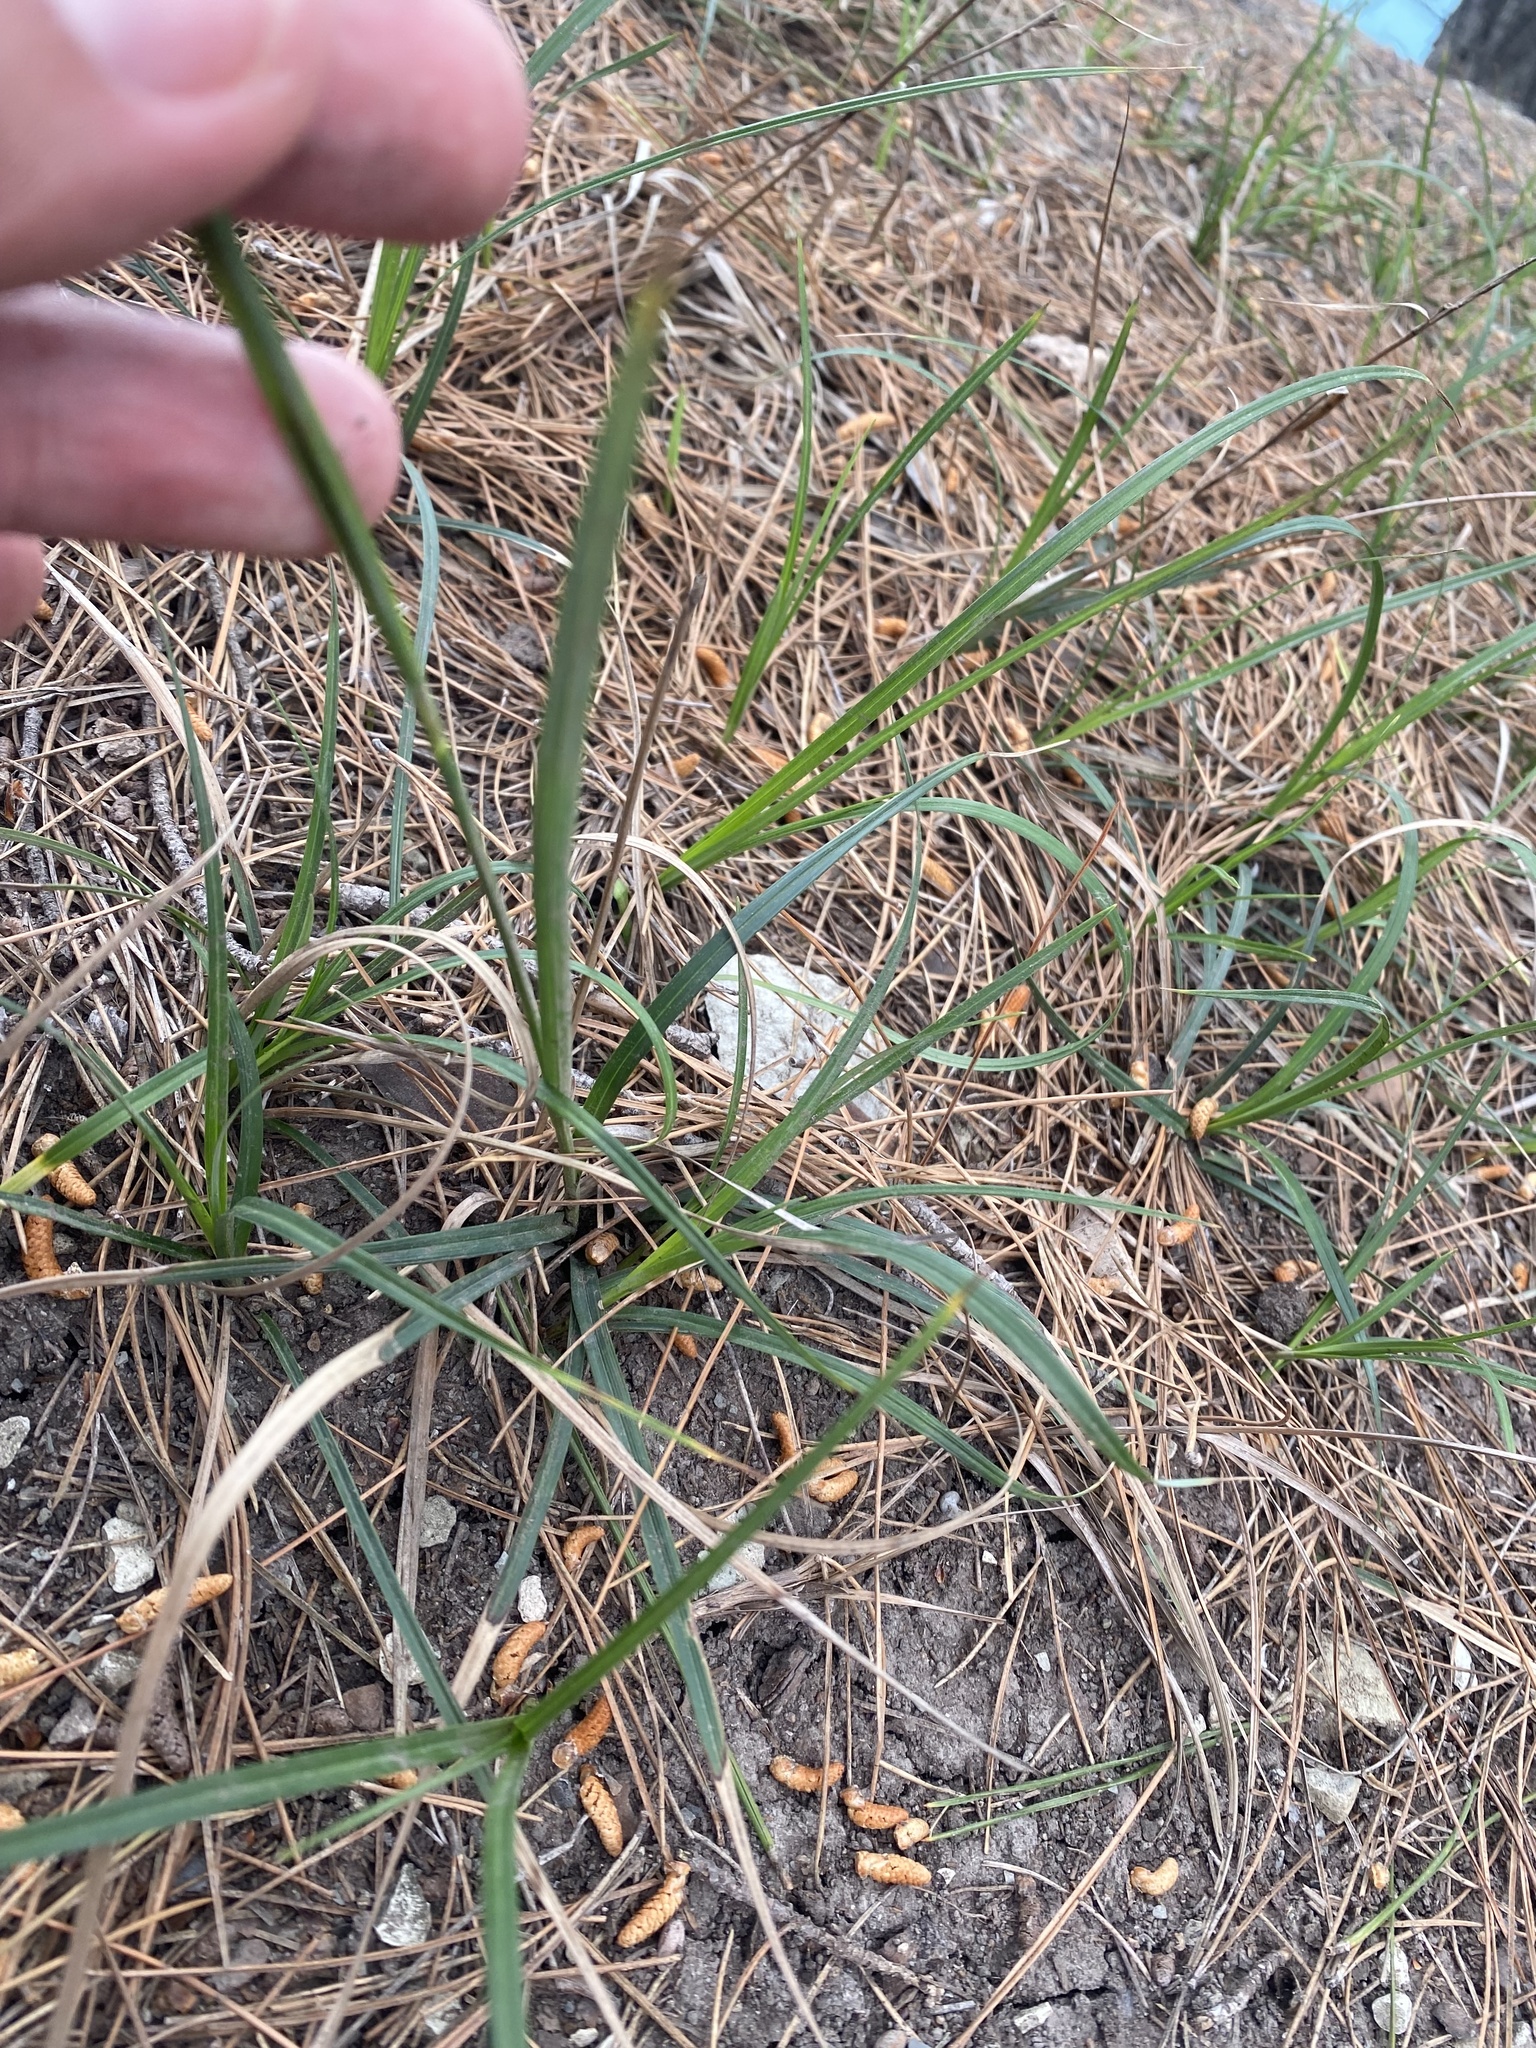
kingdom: Plantae
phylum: Tracheophyta
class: Liliopsida
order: Poales
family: Cyperaceae
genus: Carex
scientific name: Carex hirta
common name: Hairy sedge
